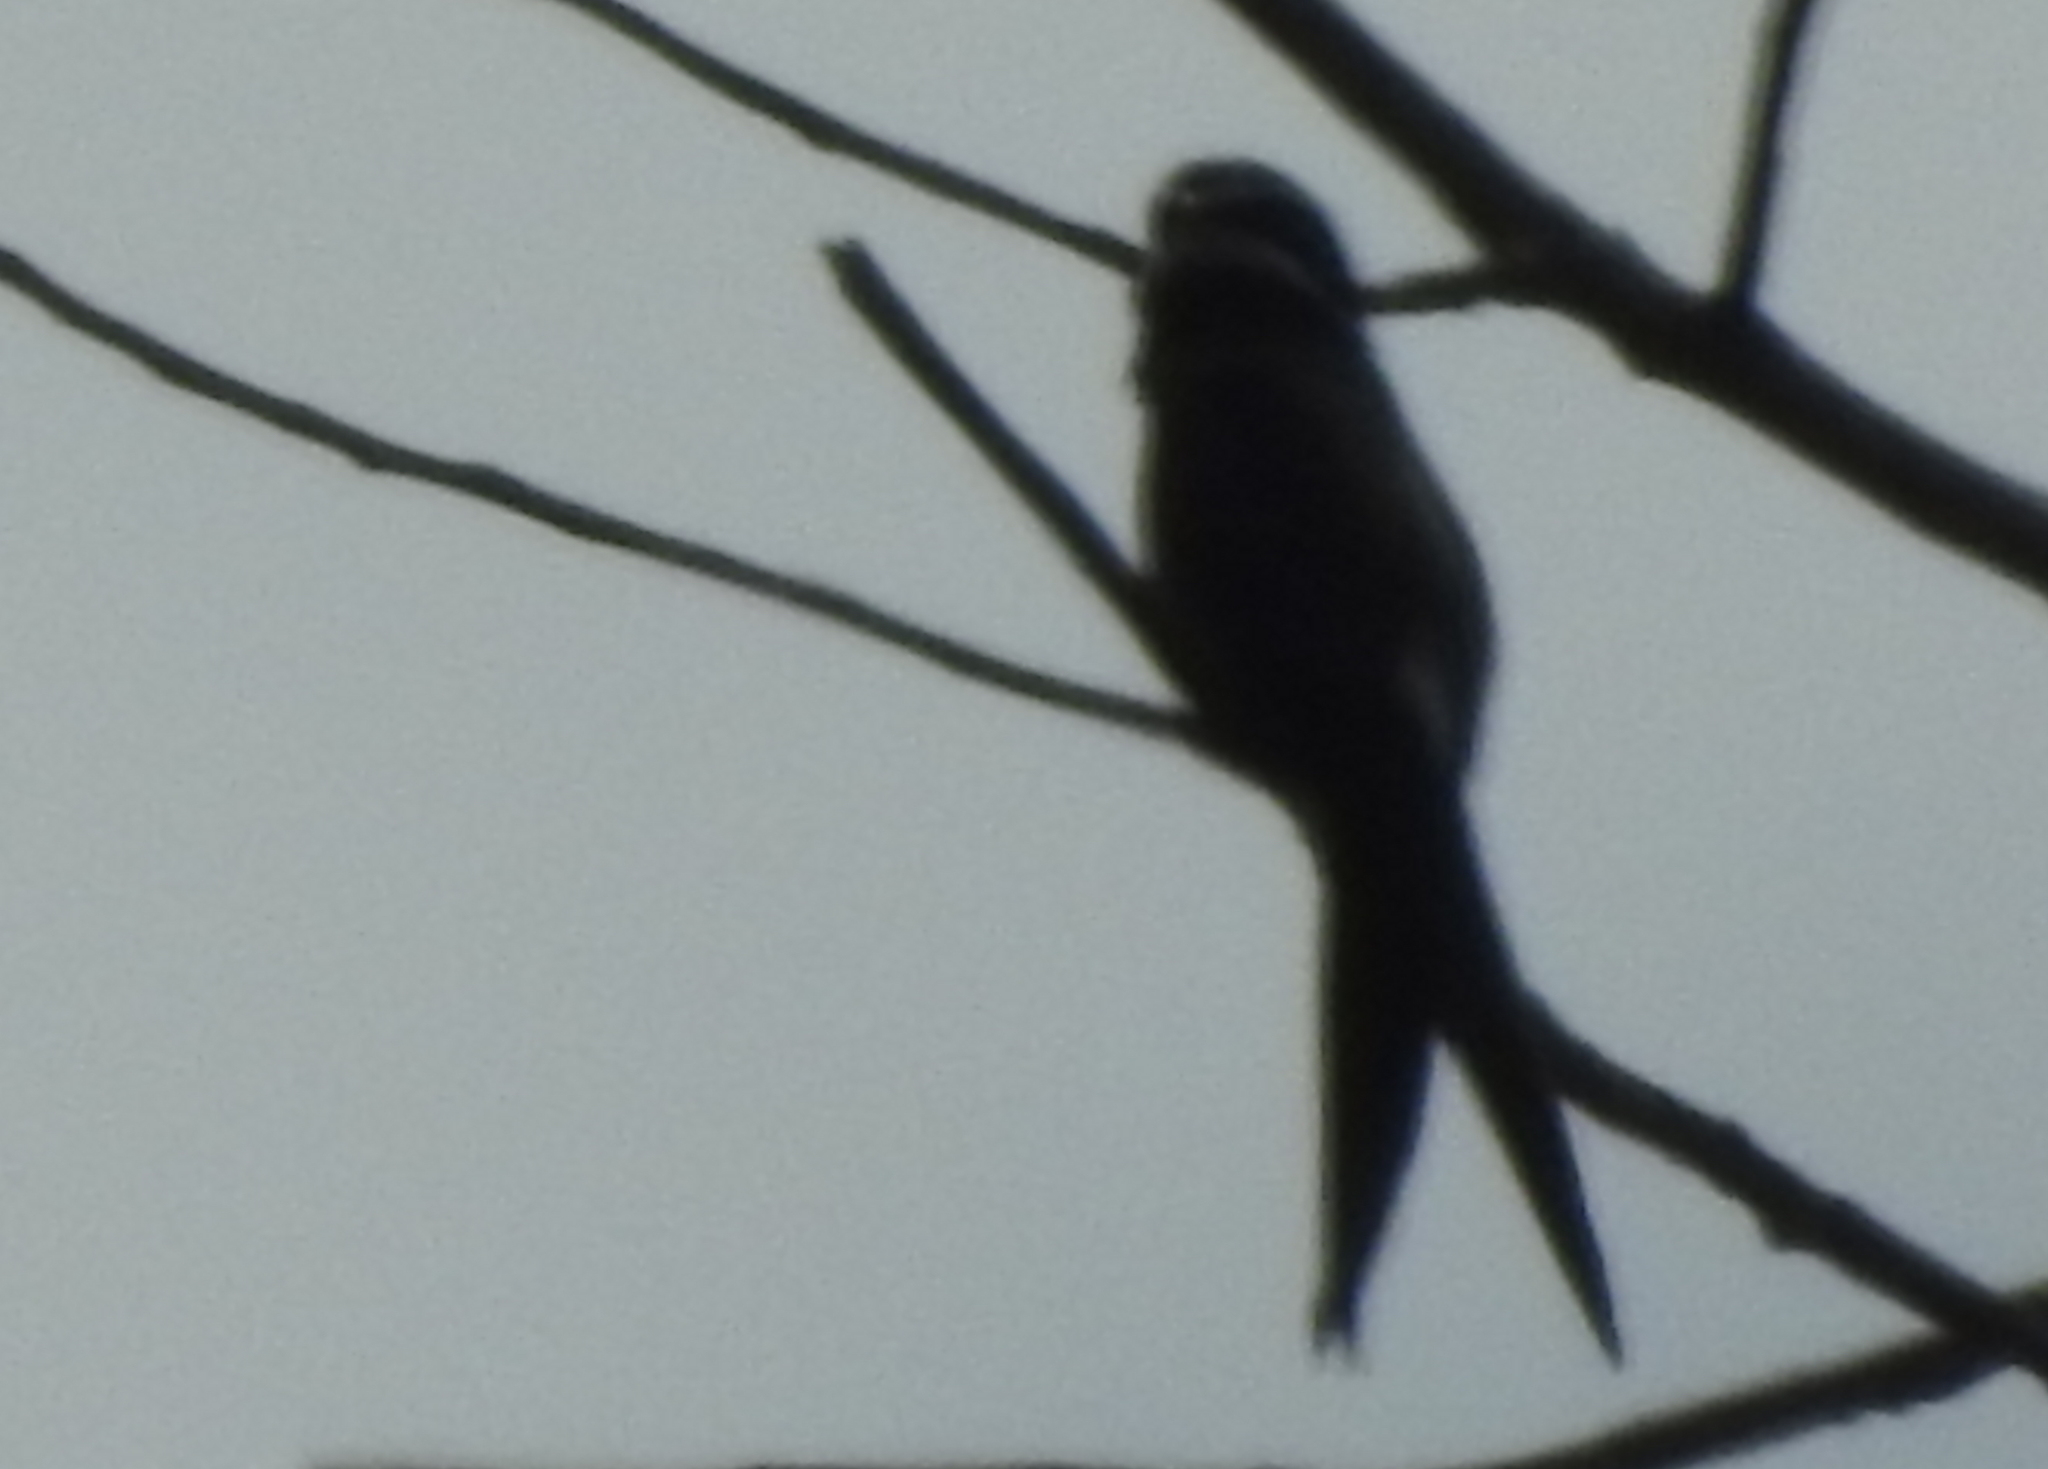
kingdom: Animalia
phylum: Chordata
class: Aves
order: Apodiformes
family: Hemiprocnidae
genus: Hemiprocne
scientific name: Hemiprocne comata
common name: Whiskered treeswift
